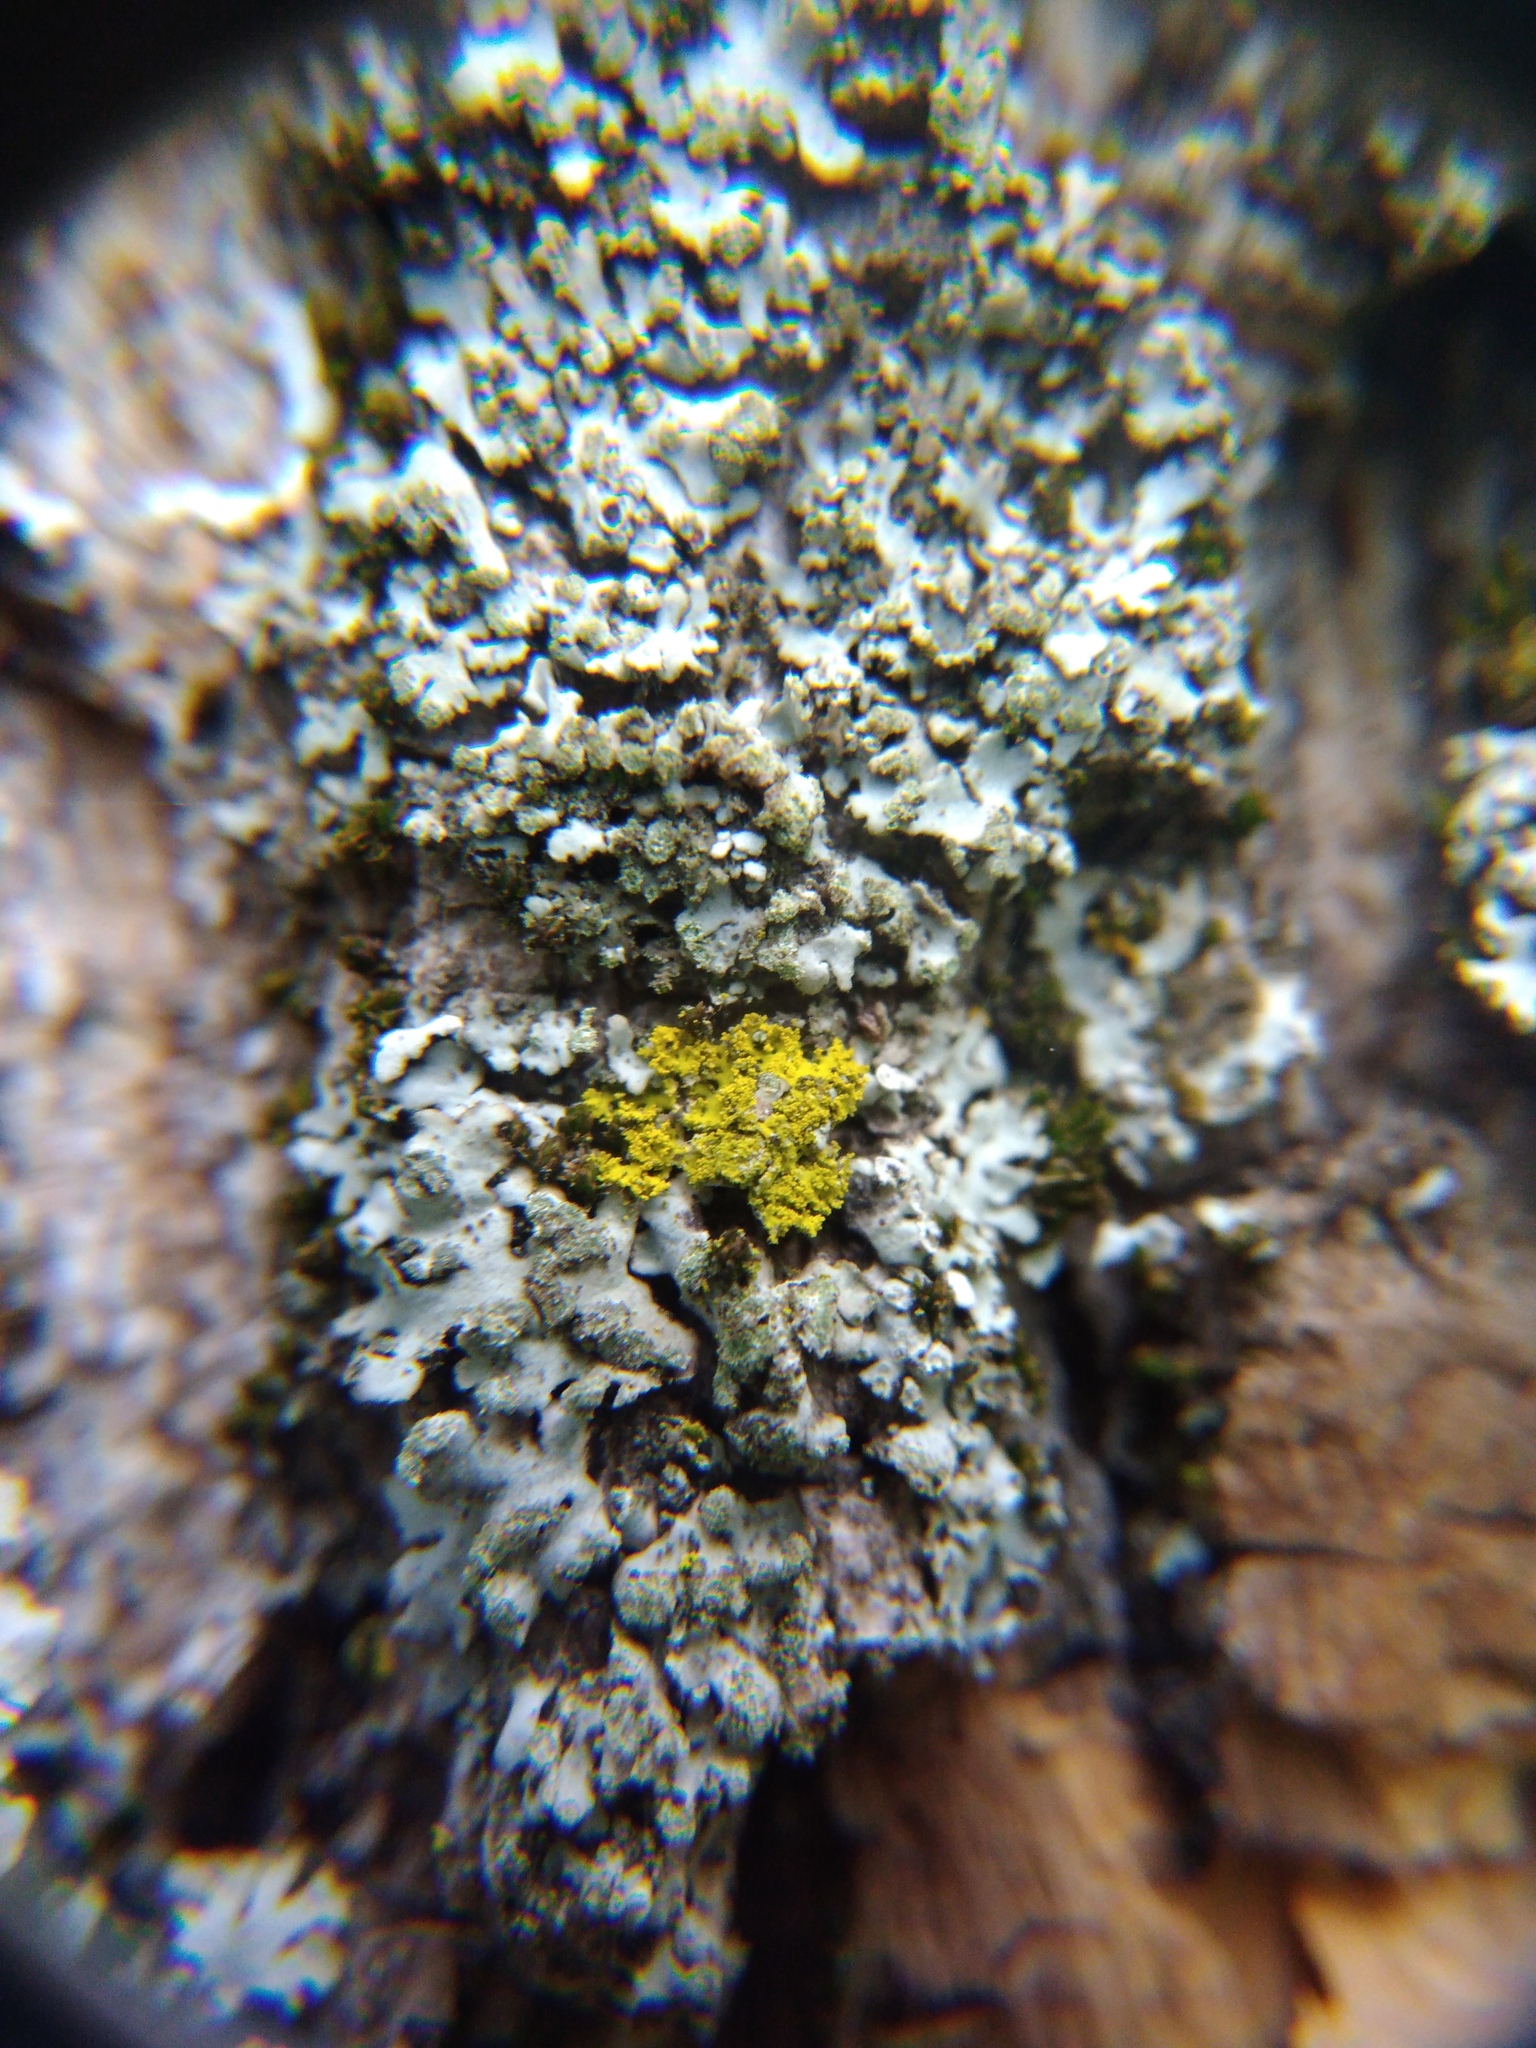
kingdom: Fungi
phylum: Ascomycota
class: Candelariomycetes
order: Candelariales
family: Candelariaceae
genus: Candelaria
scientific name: Candelaria concolor
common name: Candleflame lichen
